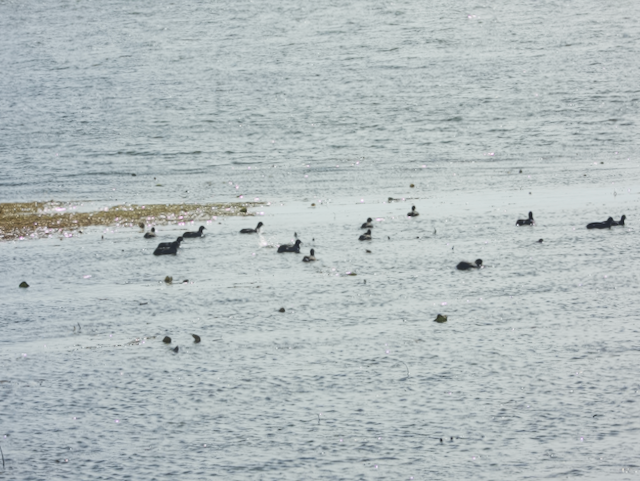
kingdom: Animalia
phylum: Chordata
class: Aves
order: Gruiformes
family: Rallidae
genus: Fulica
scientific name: Fulica americana
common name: American coot
